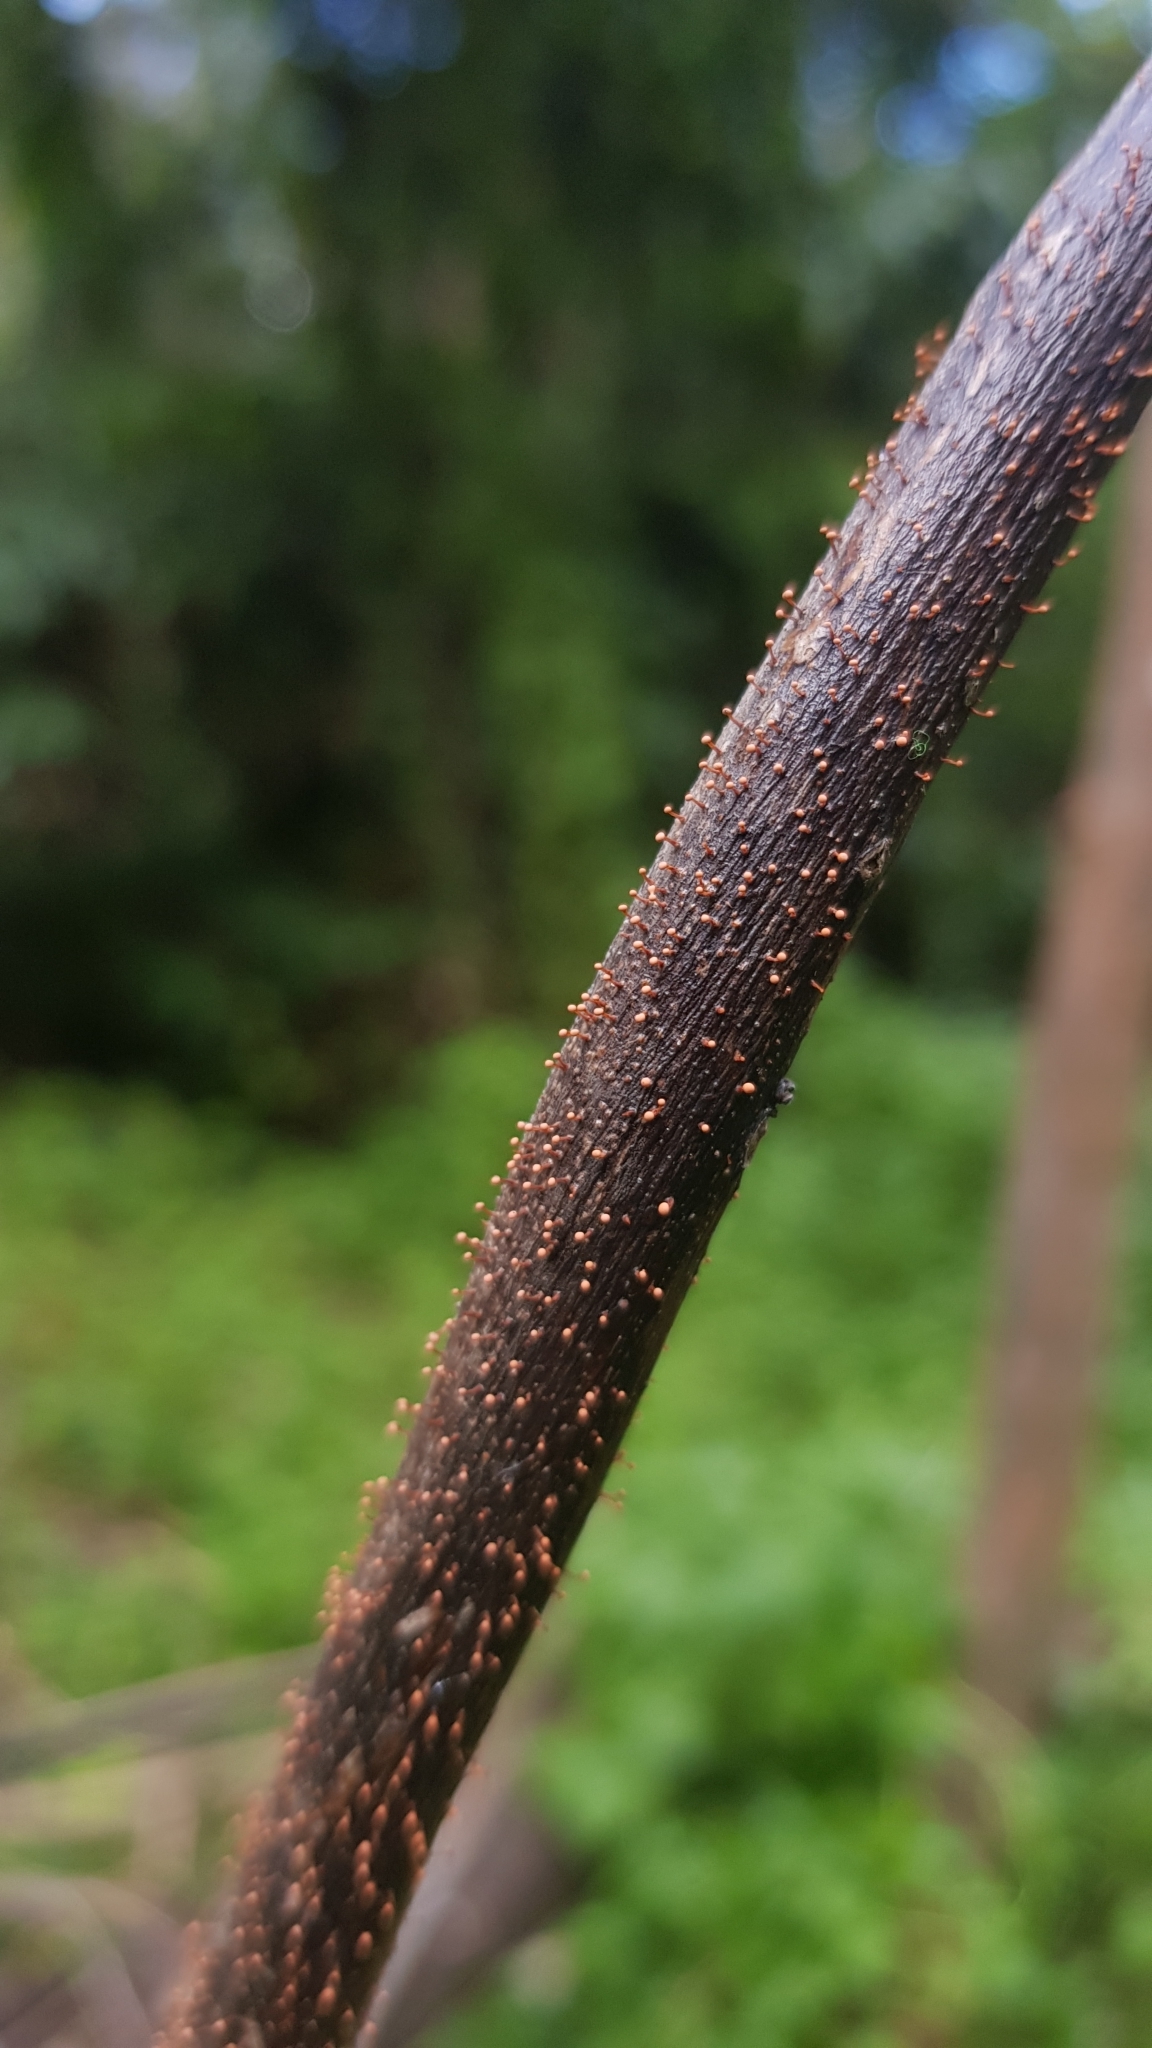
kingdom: Fungi
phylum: Ascomycota
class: Sordariomycetes
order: Hypocreales
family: Nectriaceae
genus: Nectria
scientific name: Nectria pseudotrichia
